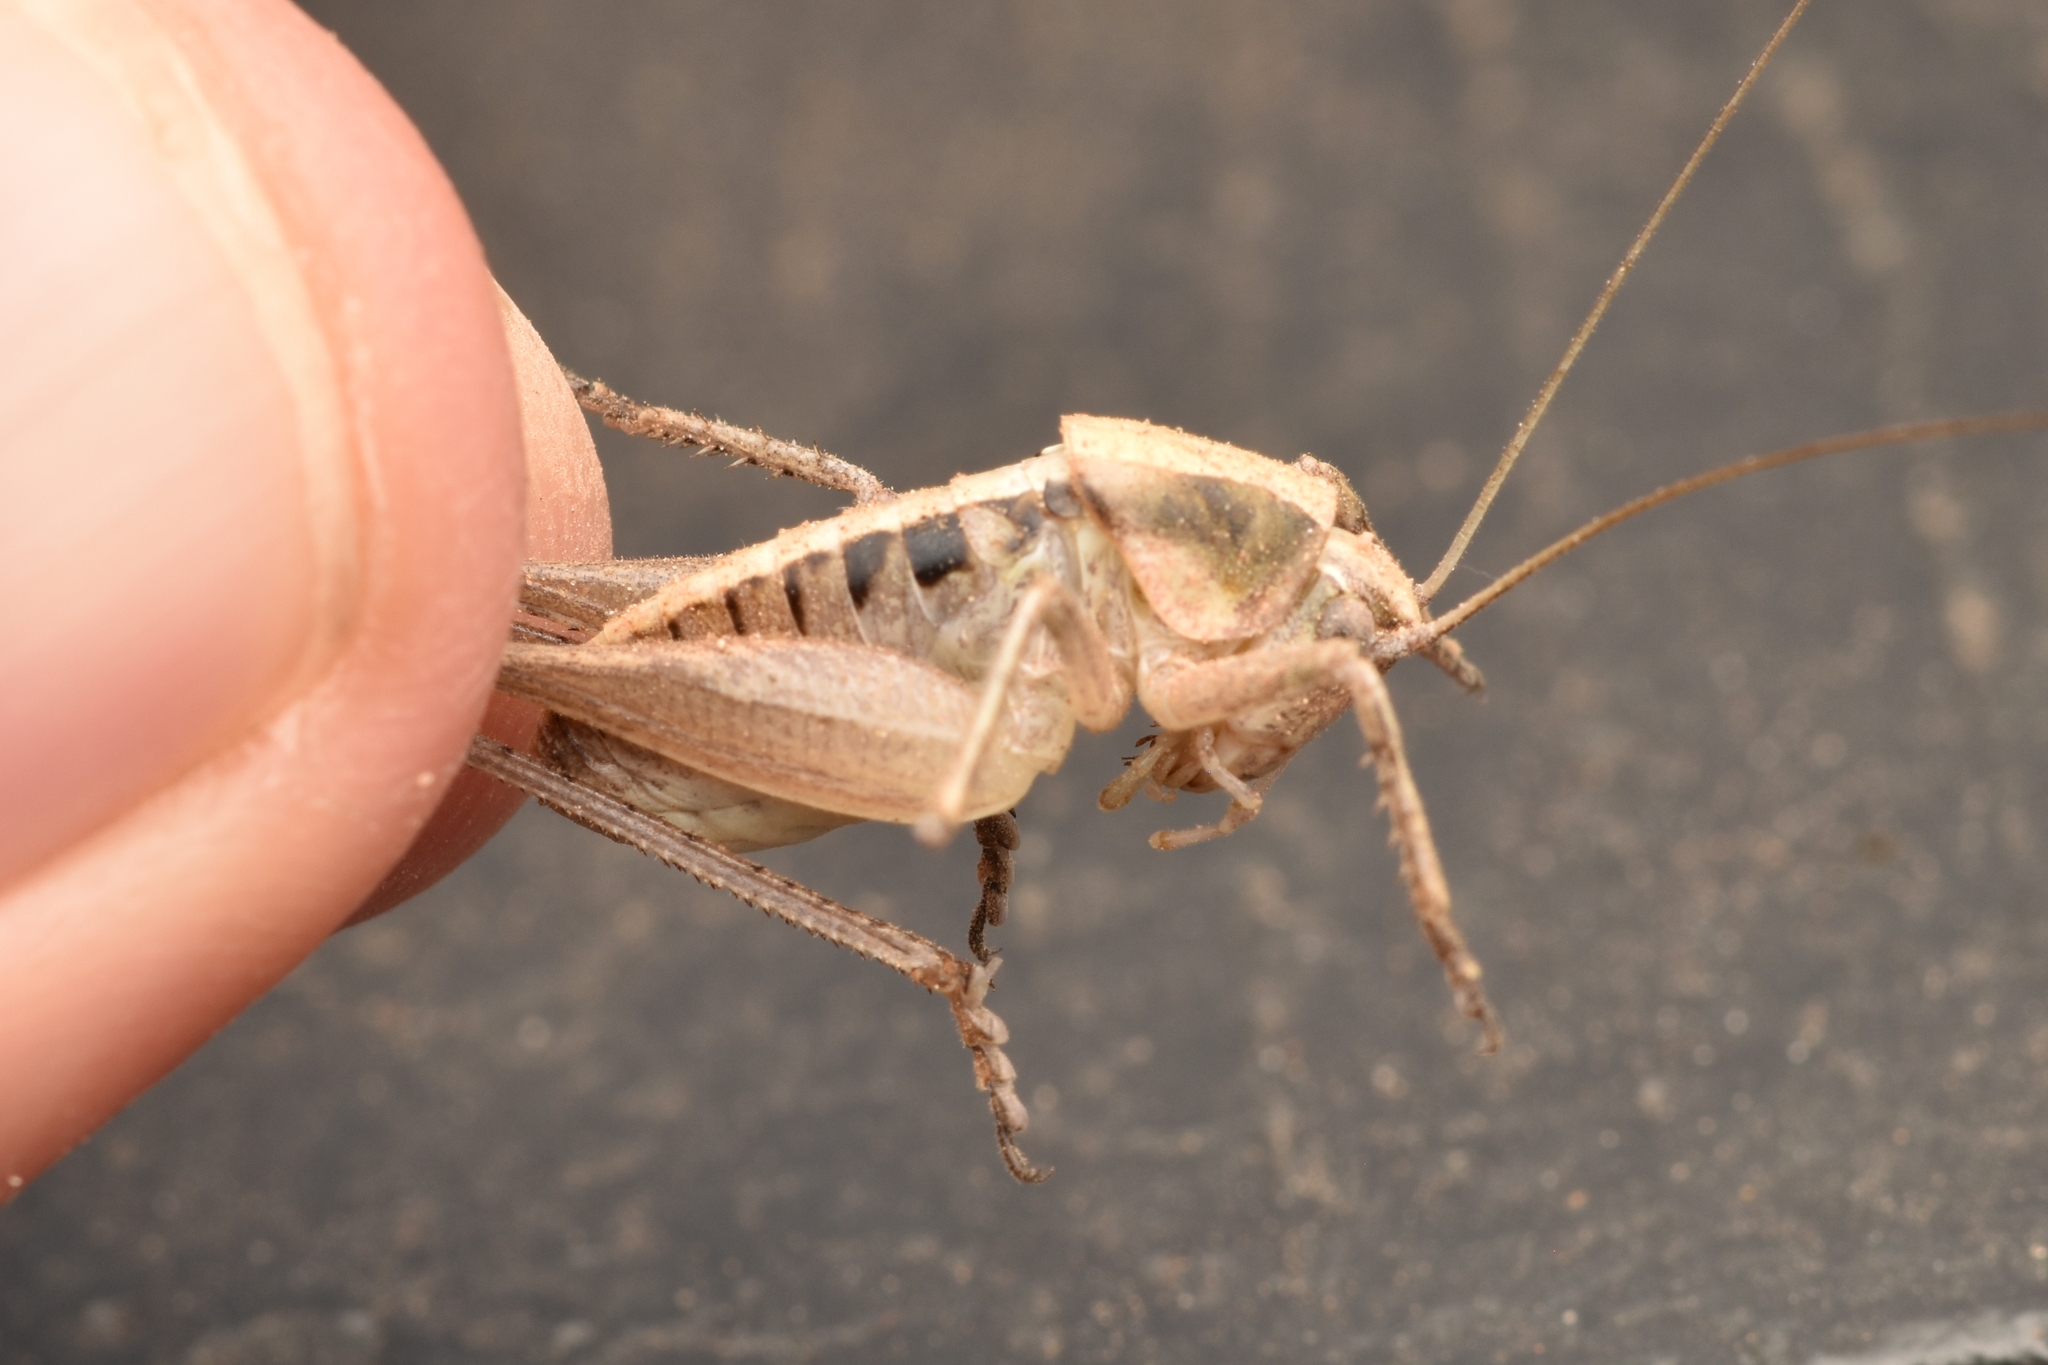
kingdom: Animalia
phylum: Arthropoda
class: Insecta
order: Orthoptera
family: Tettigoniidae
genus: Pediodectes
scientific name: Pediodectes nigromarginatus
